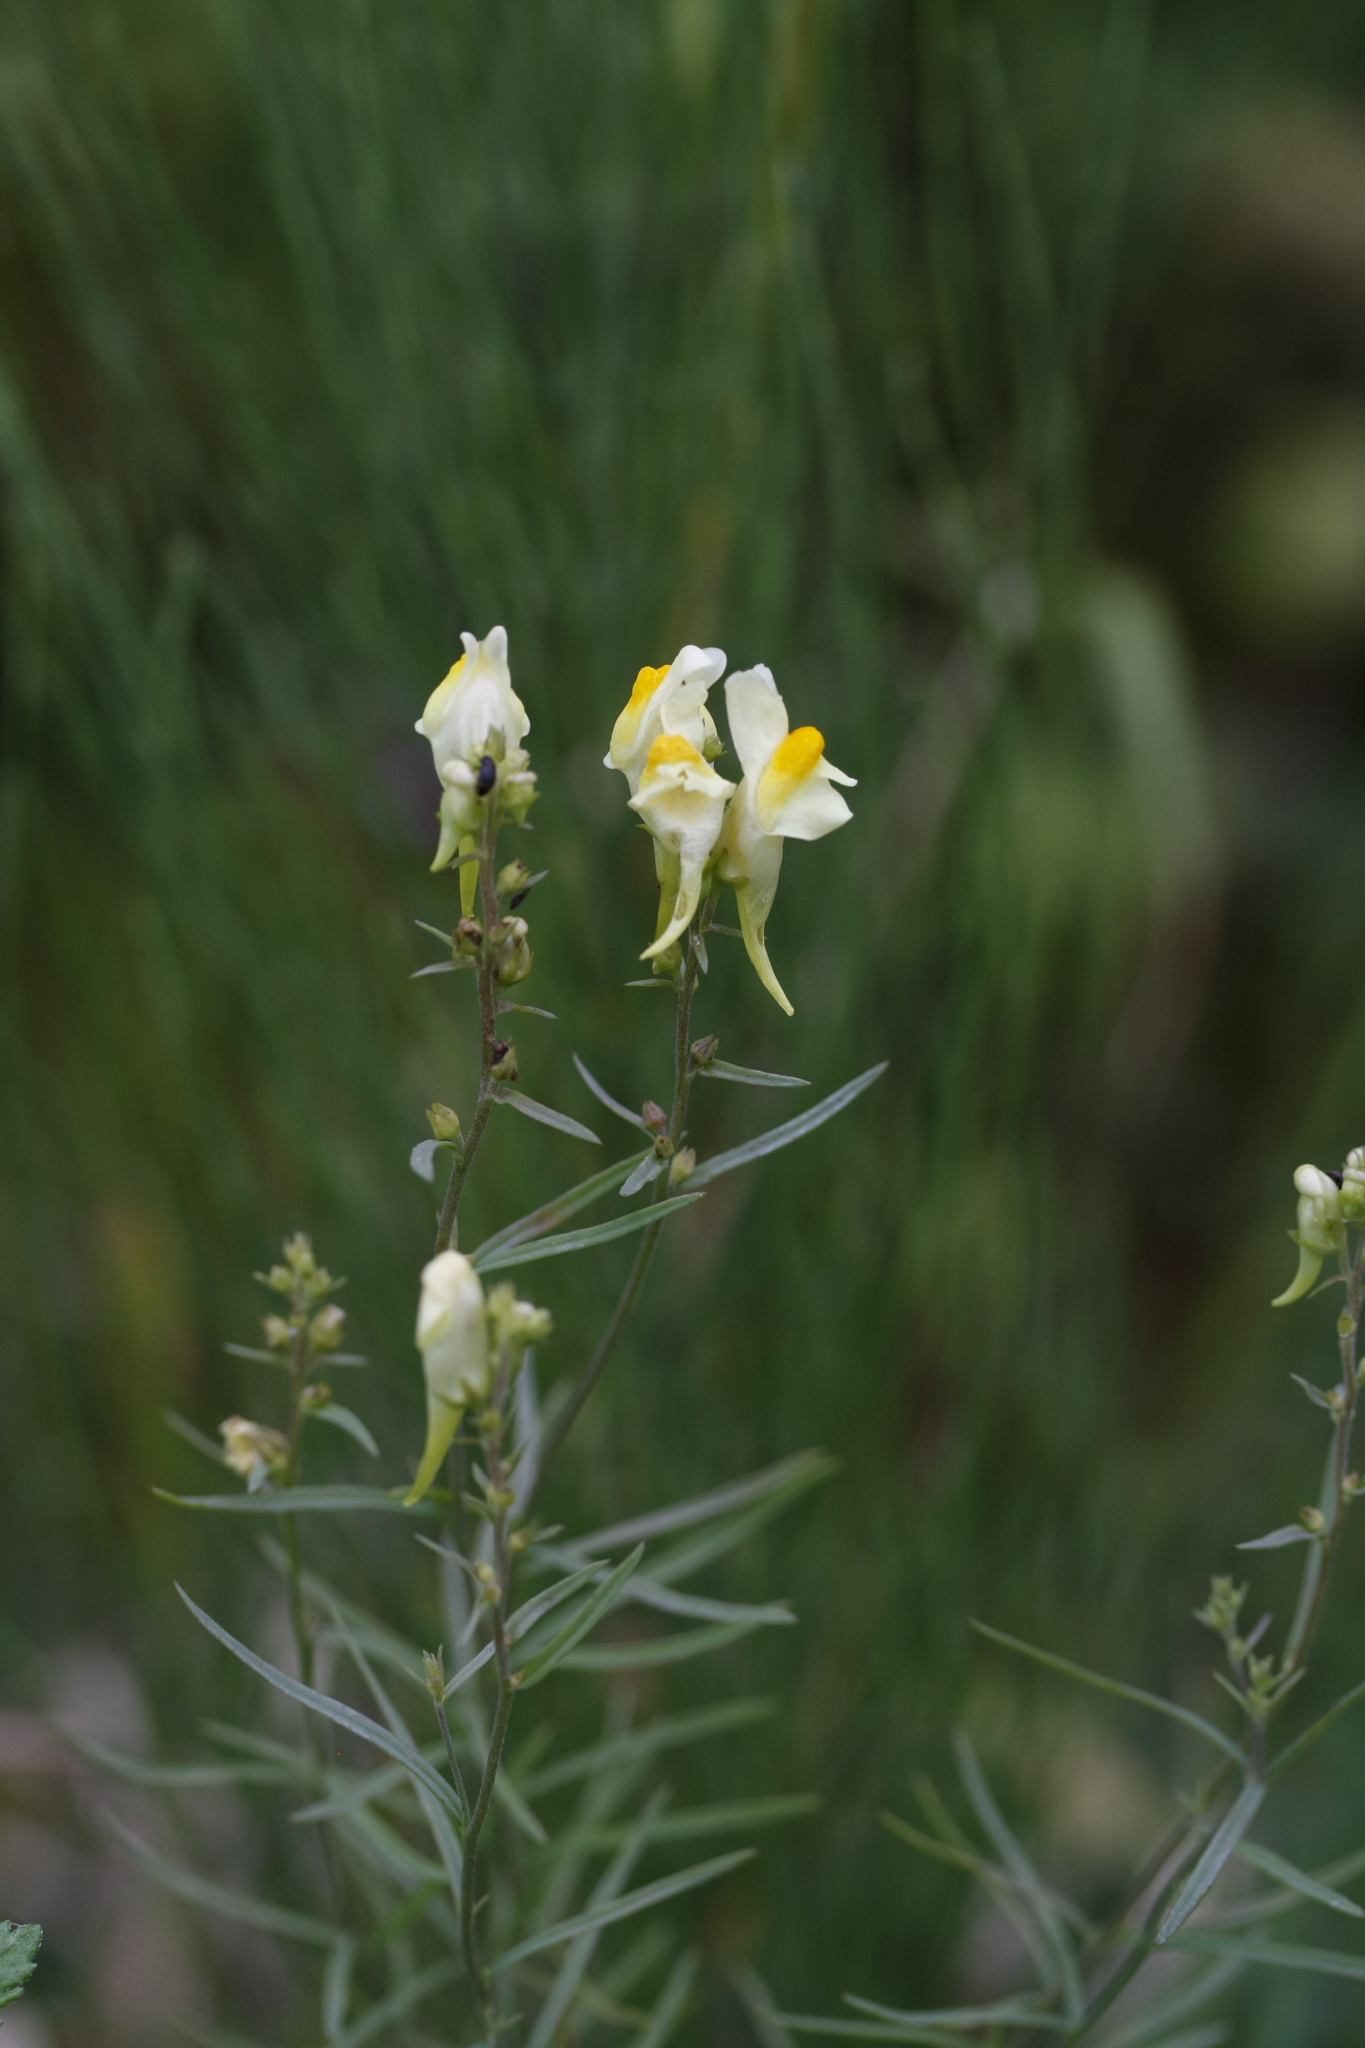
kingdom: Plantae
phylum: Tracheophyta
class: Magnoliopsida
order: Lamiales
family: Plantaginaceae
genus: Linaria
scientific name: Linaria vulgaris
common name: Butter and eggs
